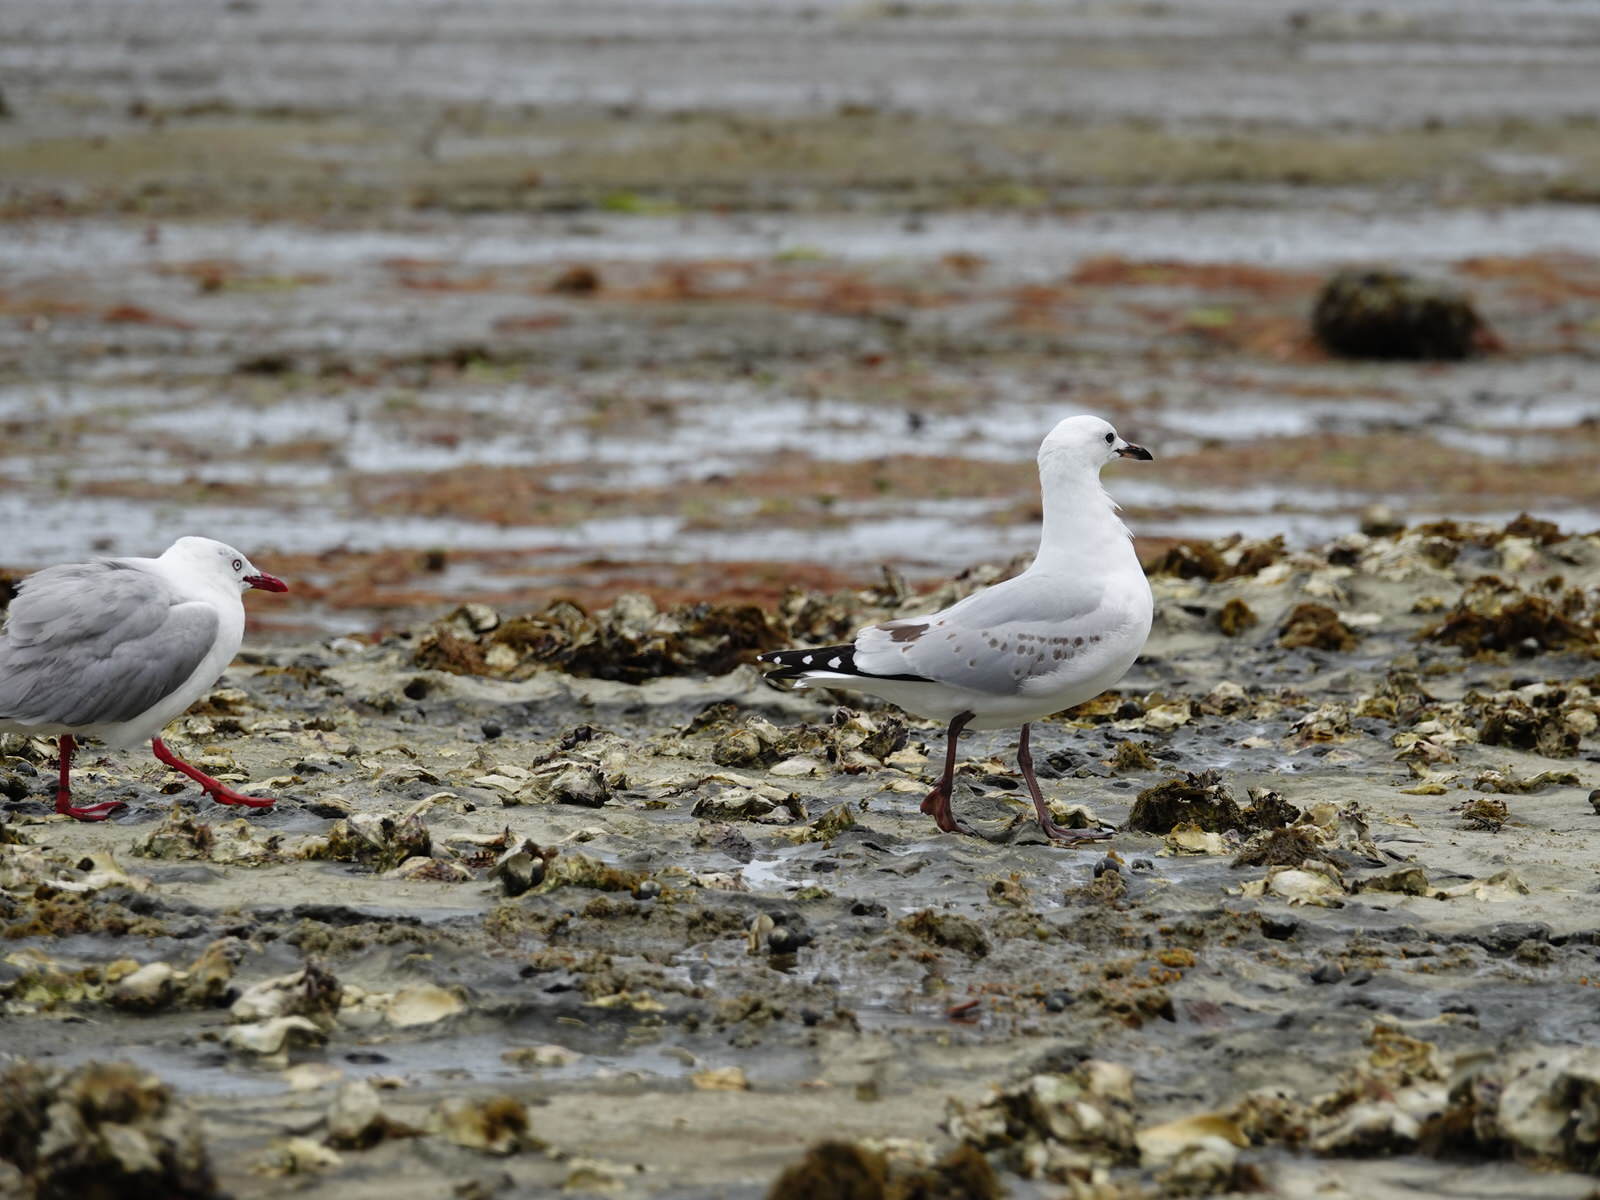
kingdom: Animalia
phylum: Chordata
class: Aves
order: Charadriiformes
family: Laridae
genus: Chroicocephalus
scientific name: Chroicocephalus novaehollandiae
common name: Silver gull
